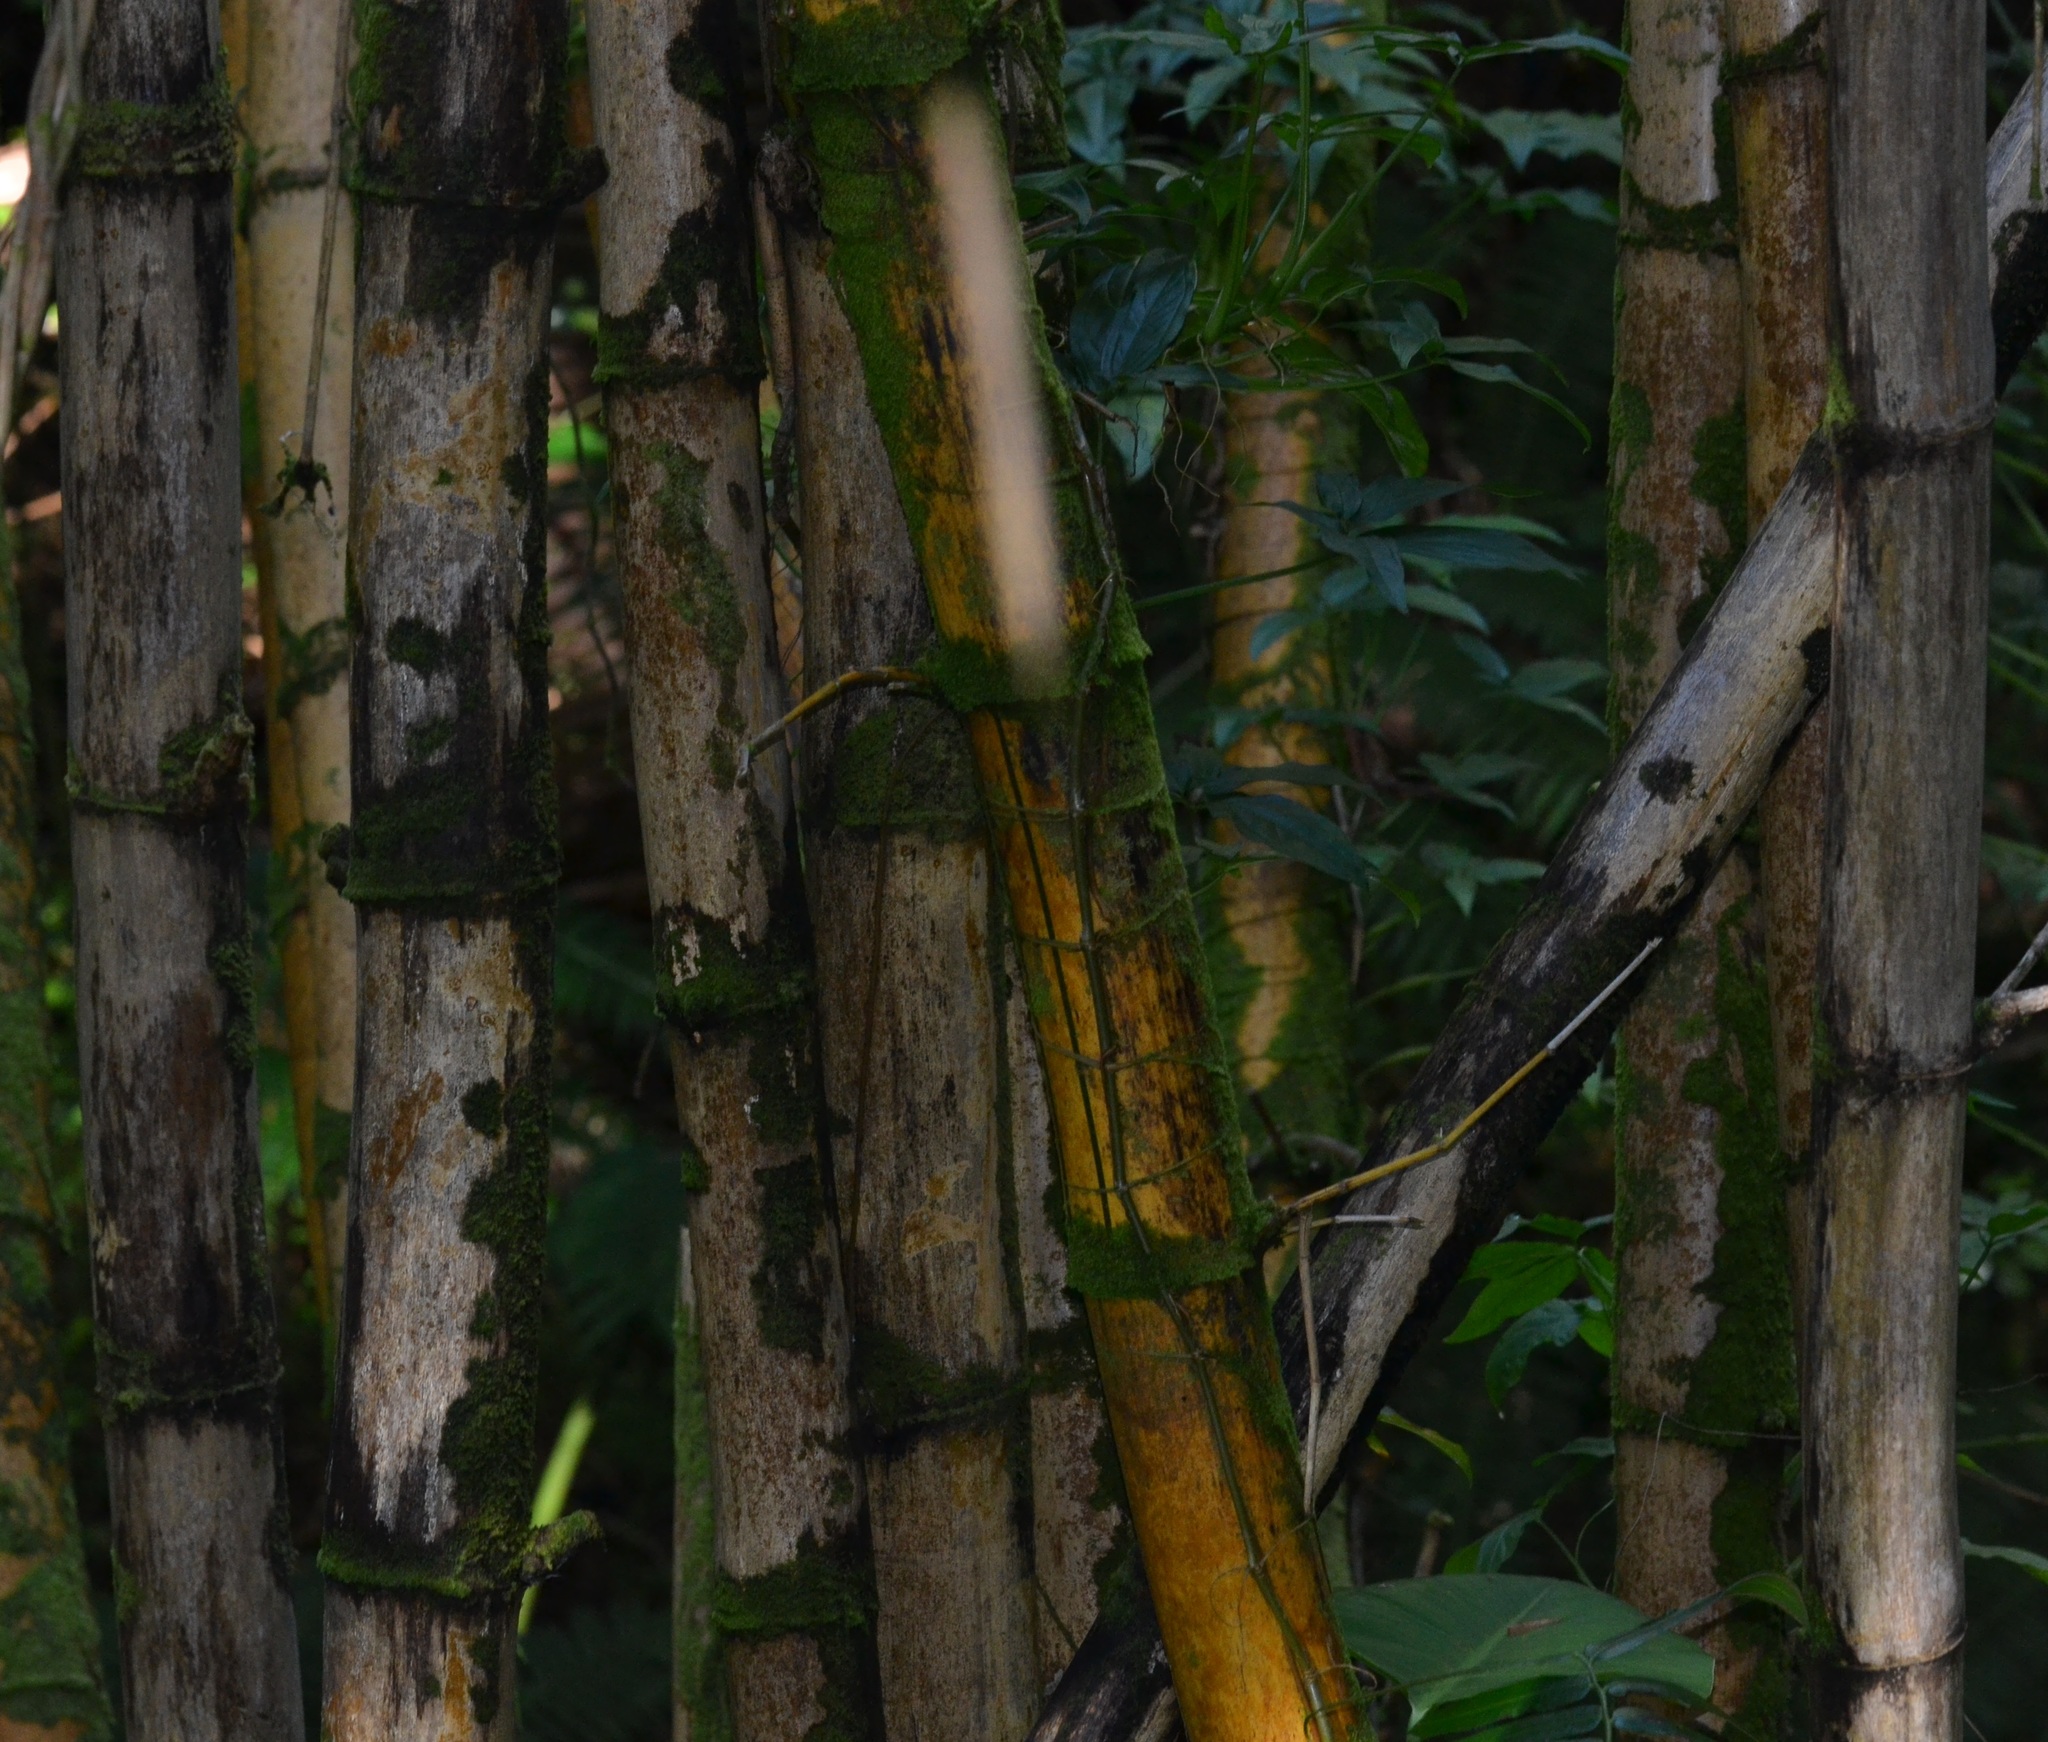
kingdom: Plantae
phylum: Tracheophyta
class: Liliopsida
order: Poales
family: Poaceae
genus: Bambusa
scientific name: Bambusa vulgaris
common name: Common bamboo
